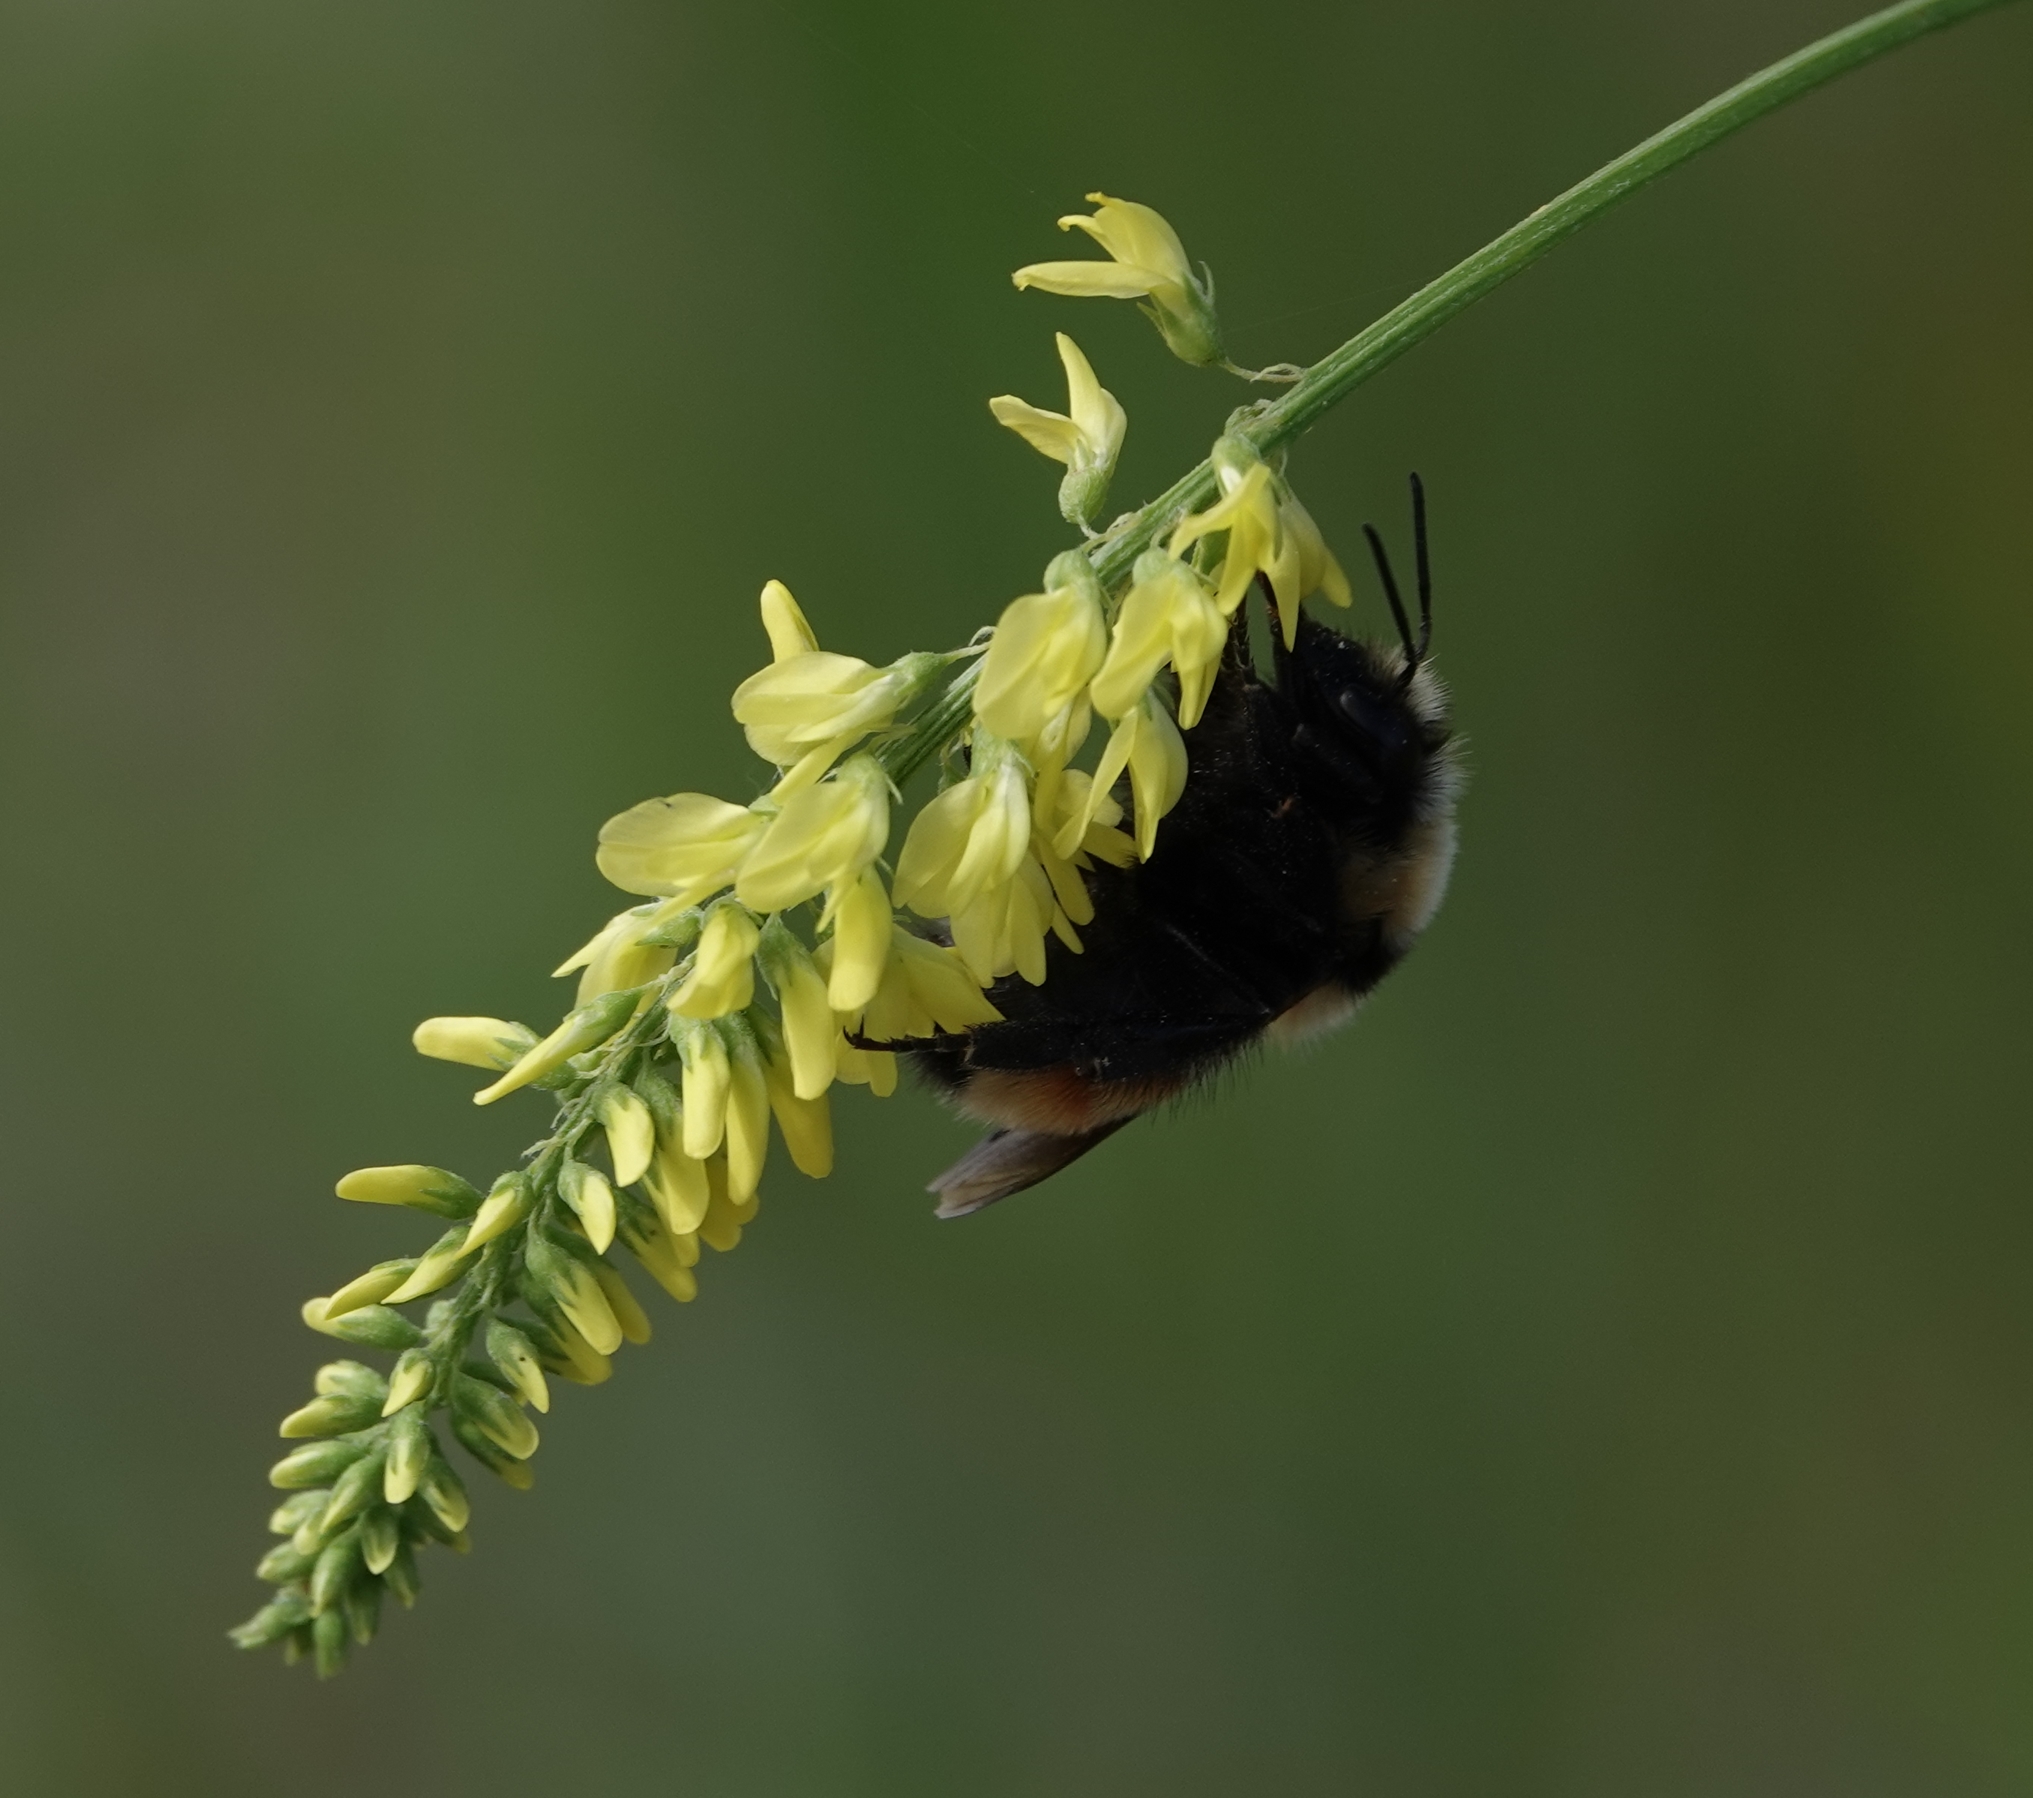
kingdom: Animalia
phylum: Arthropoda
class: Insecta
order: Hymenoptera
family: Apidae
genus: Bombus
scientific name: Bombus huntii
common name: Hunt bumble bee
